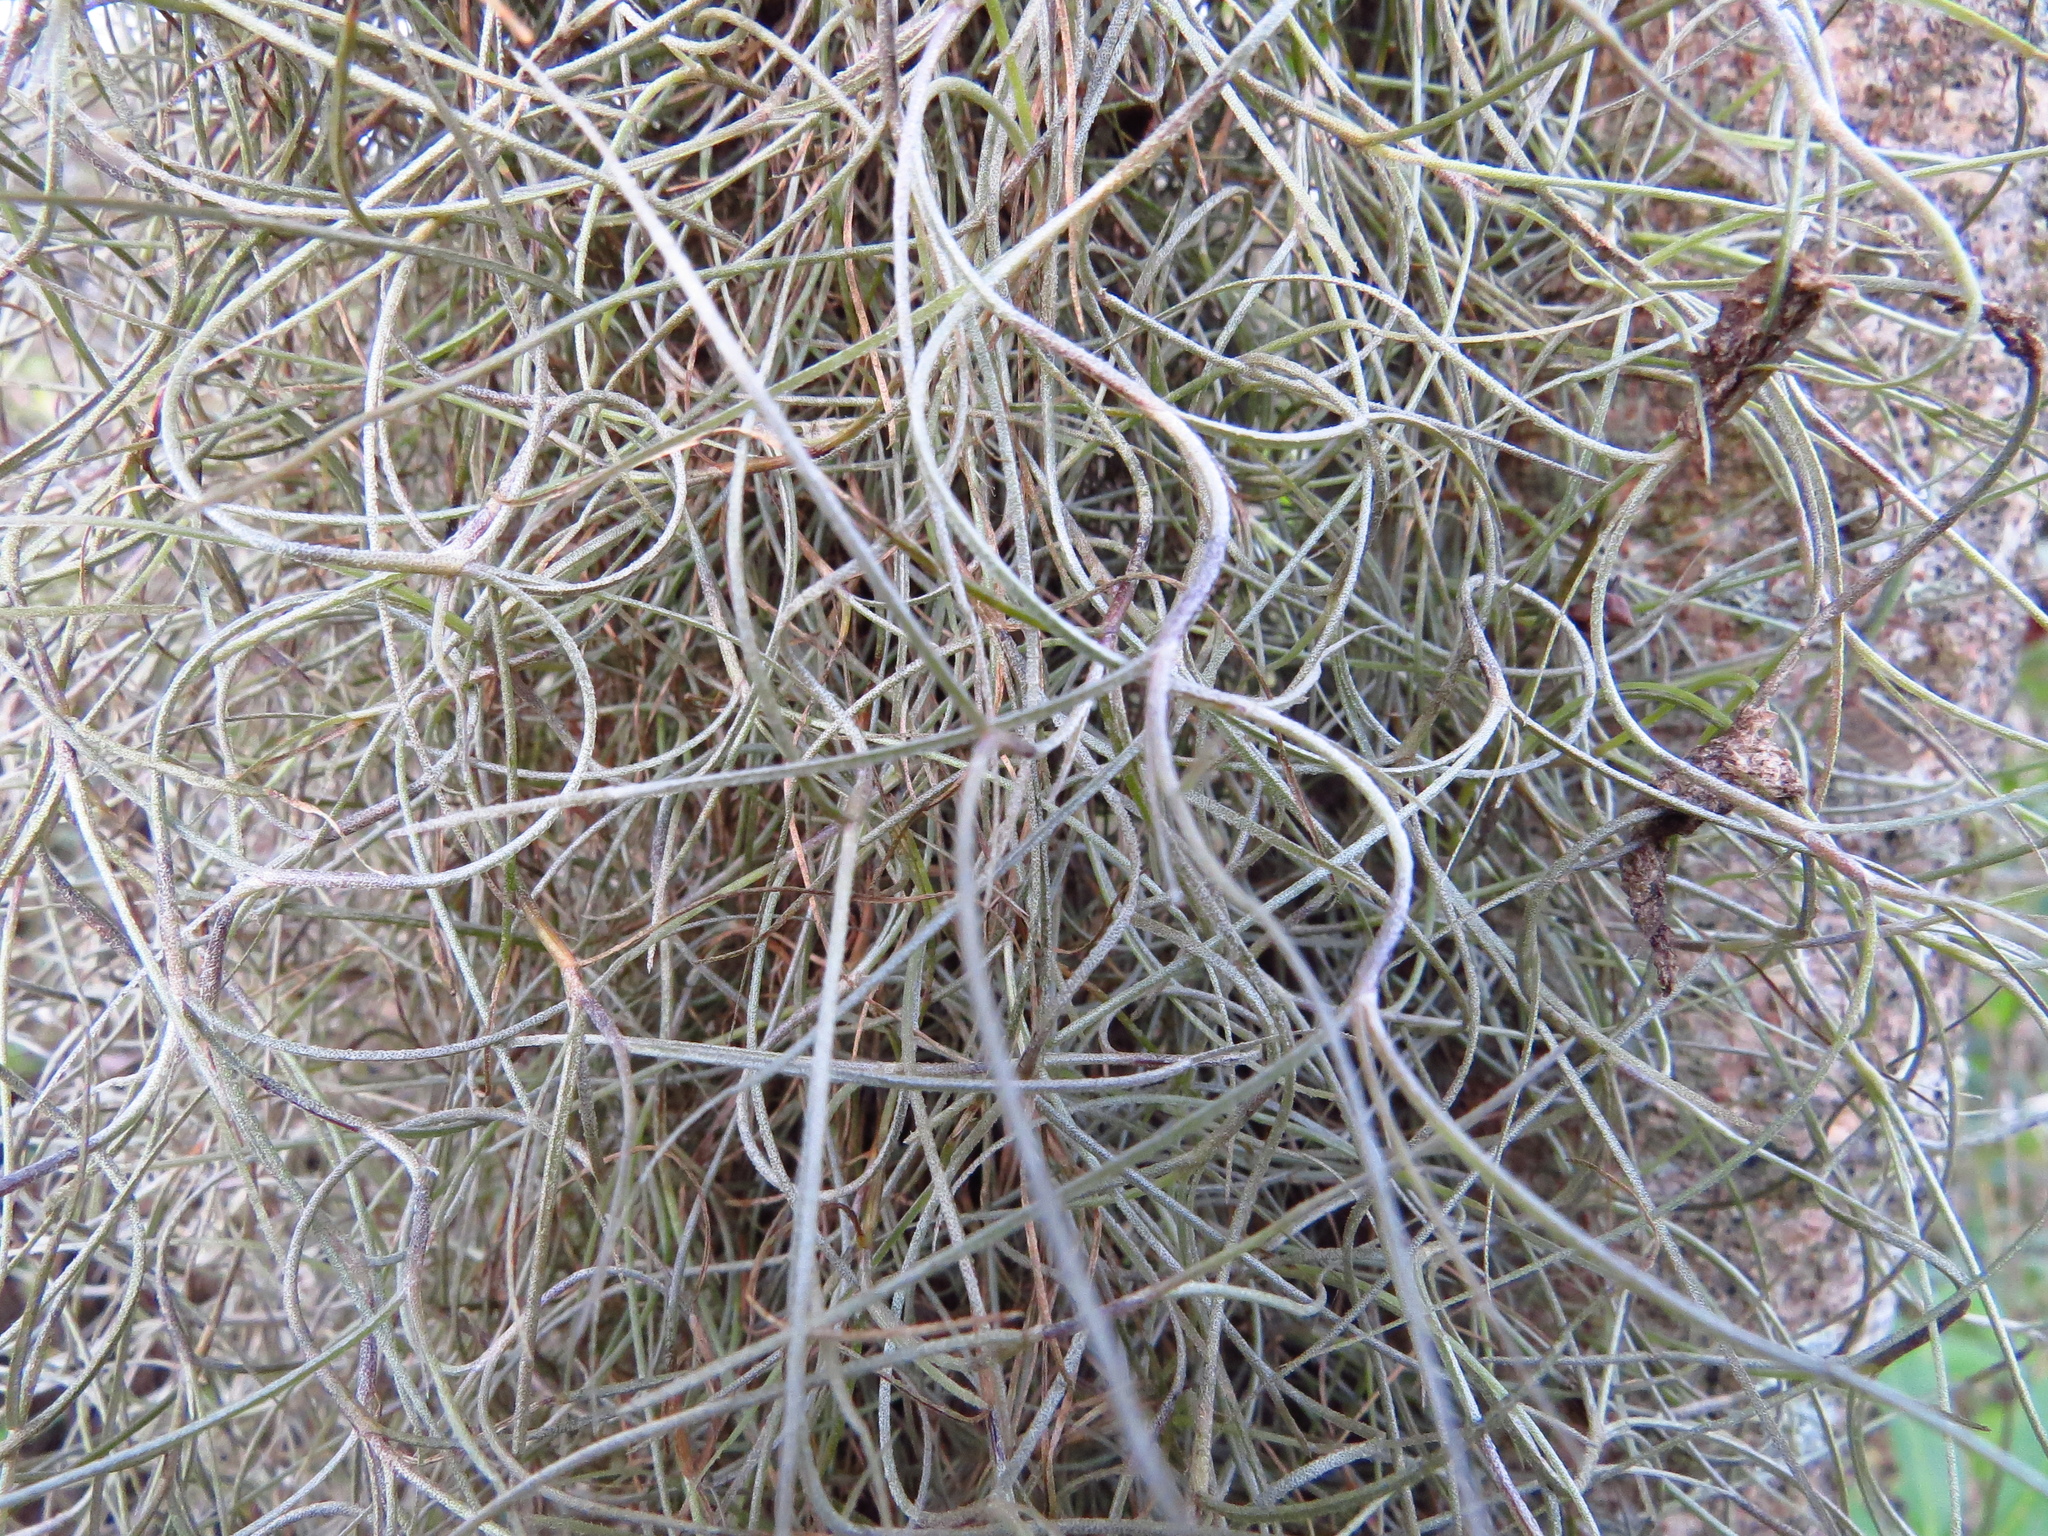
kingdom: Plantae
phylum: Tracheophyta
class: Liliopsida
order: Poales
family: Bromeliaceae
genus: Tillandsia
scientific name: Tillandsia usneoides
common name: Spanish moss
